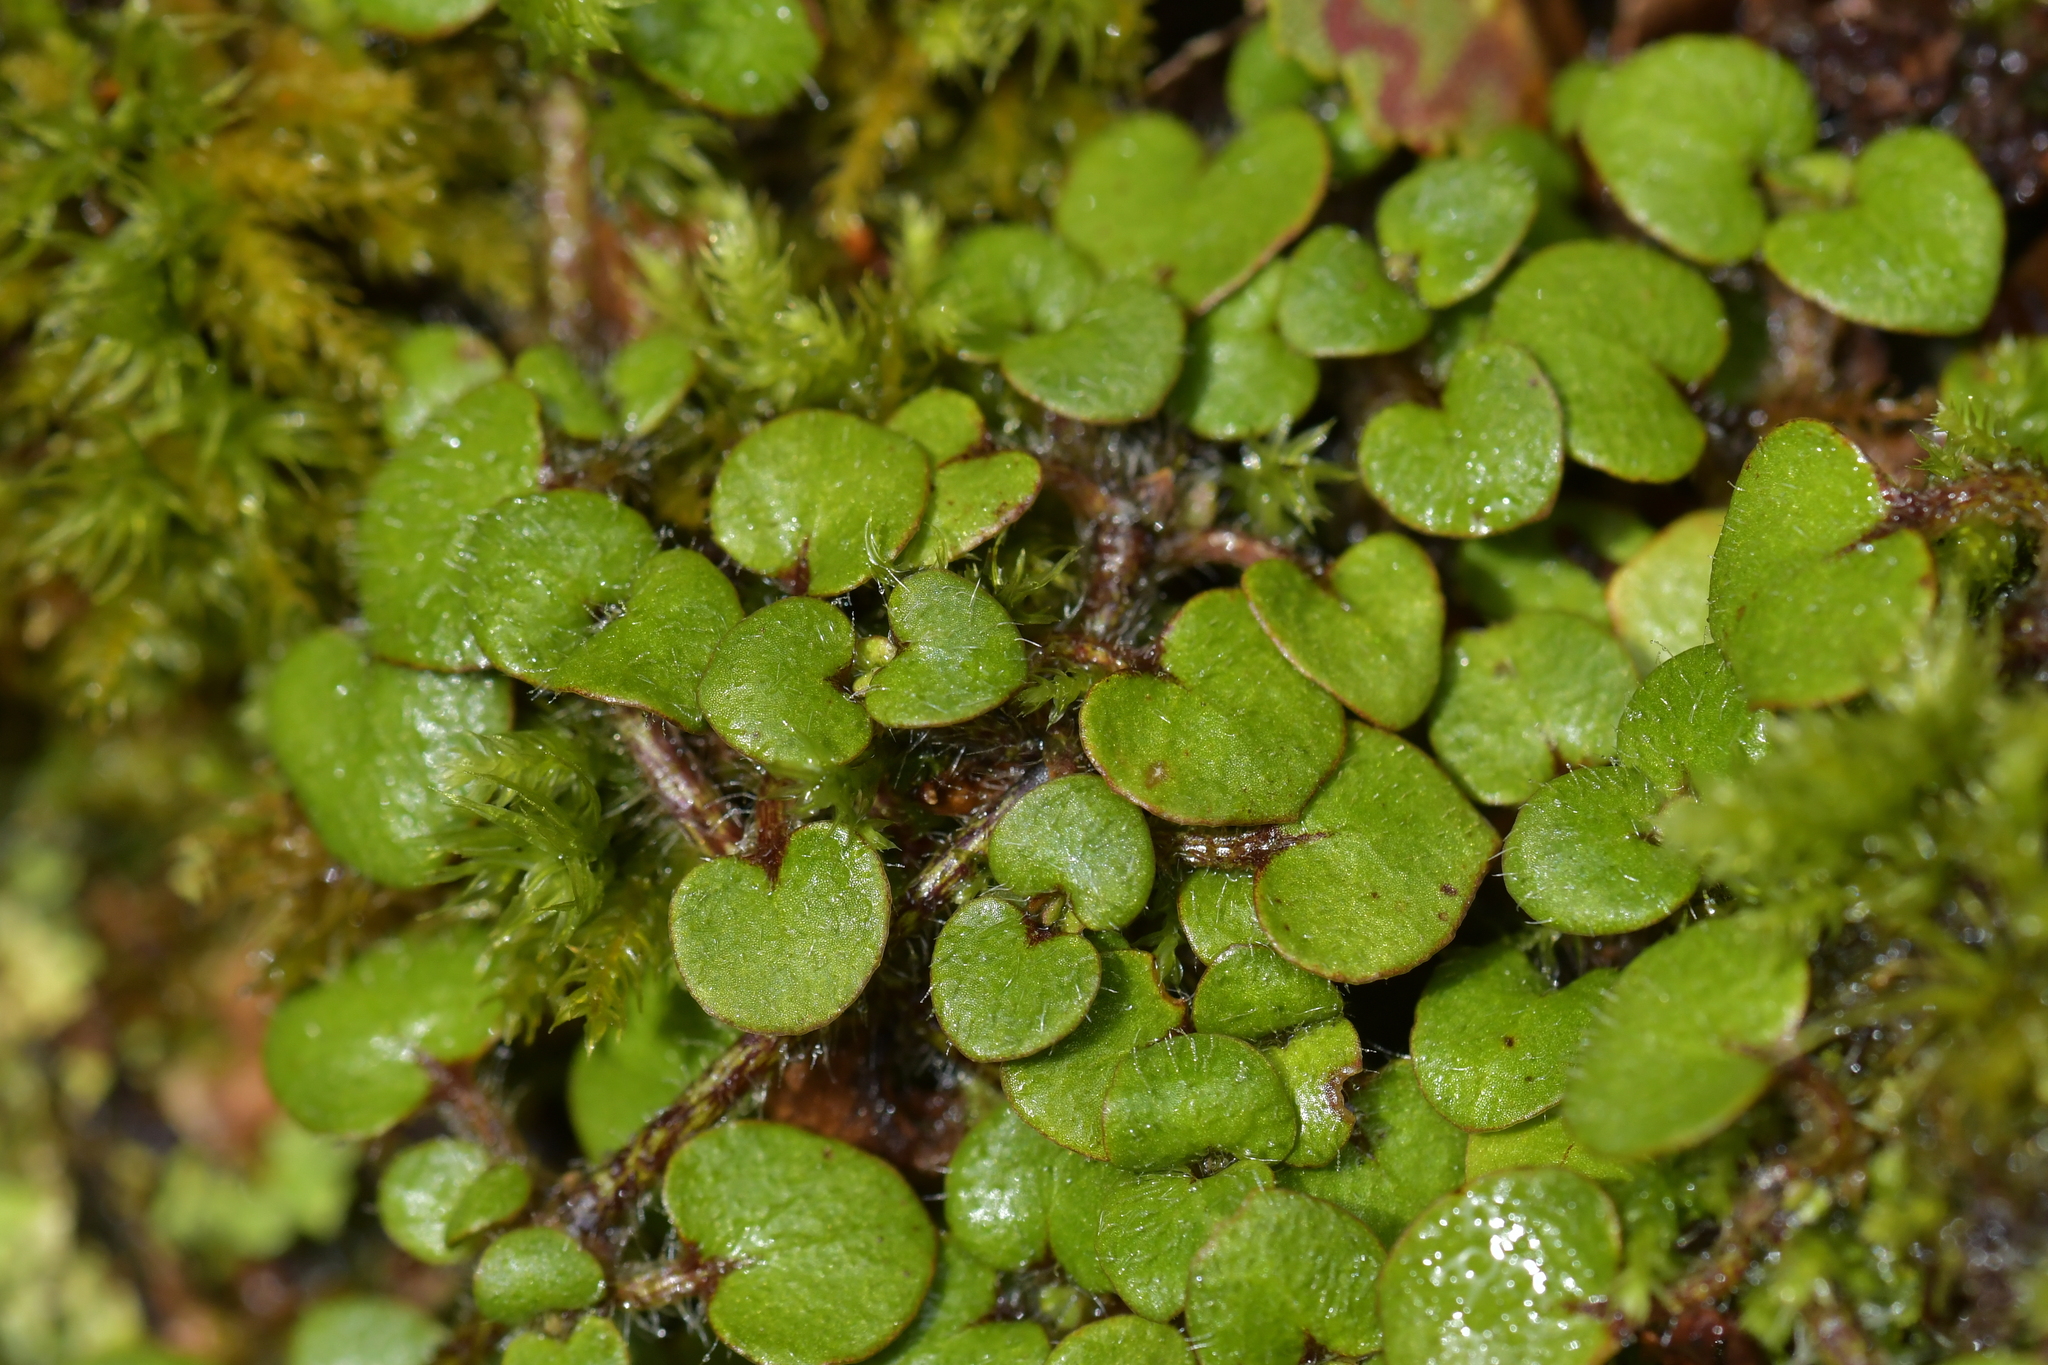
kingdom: Plantae
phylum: Tracheophyta
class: Magnoliopsida
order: Gentianales
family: Rubiaceae
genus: Nertera
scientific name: Nertera villosa
